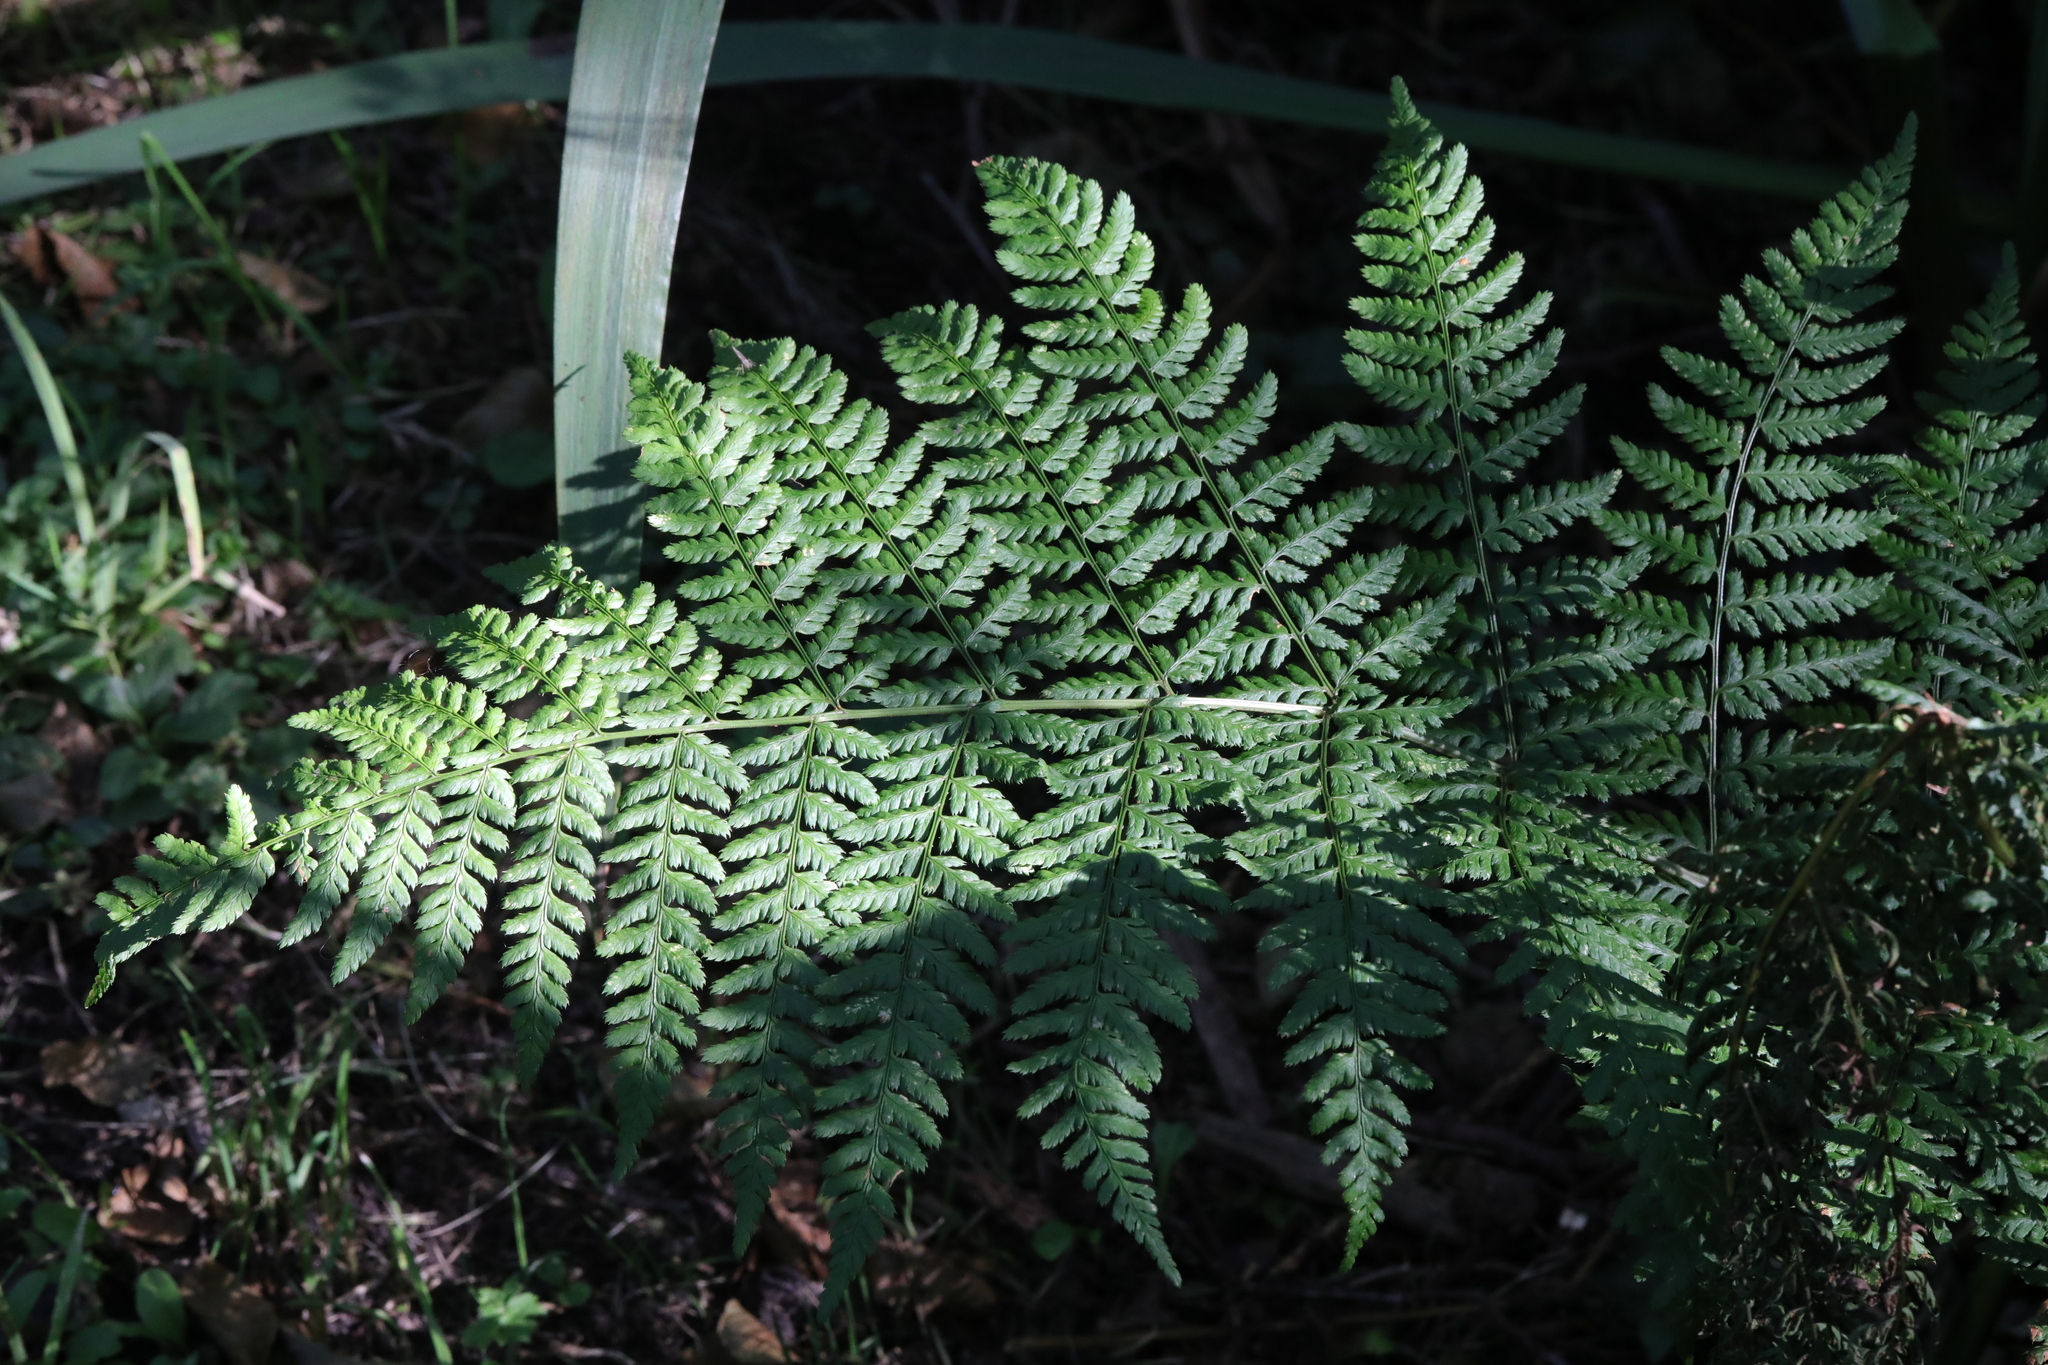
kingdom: Plantae
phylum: Tracheophyta
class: Polypodiopsida
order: Polypodiales
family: Dryopteridaceae
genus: Dryopteris
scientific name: Dryopteris dilatata
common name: Broad buckler-fern
